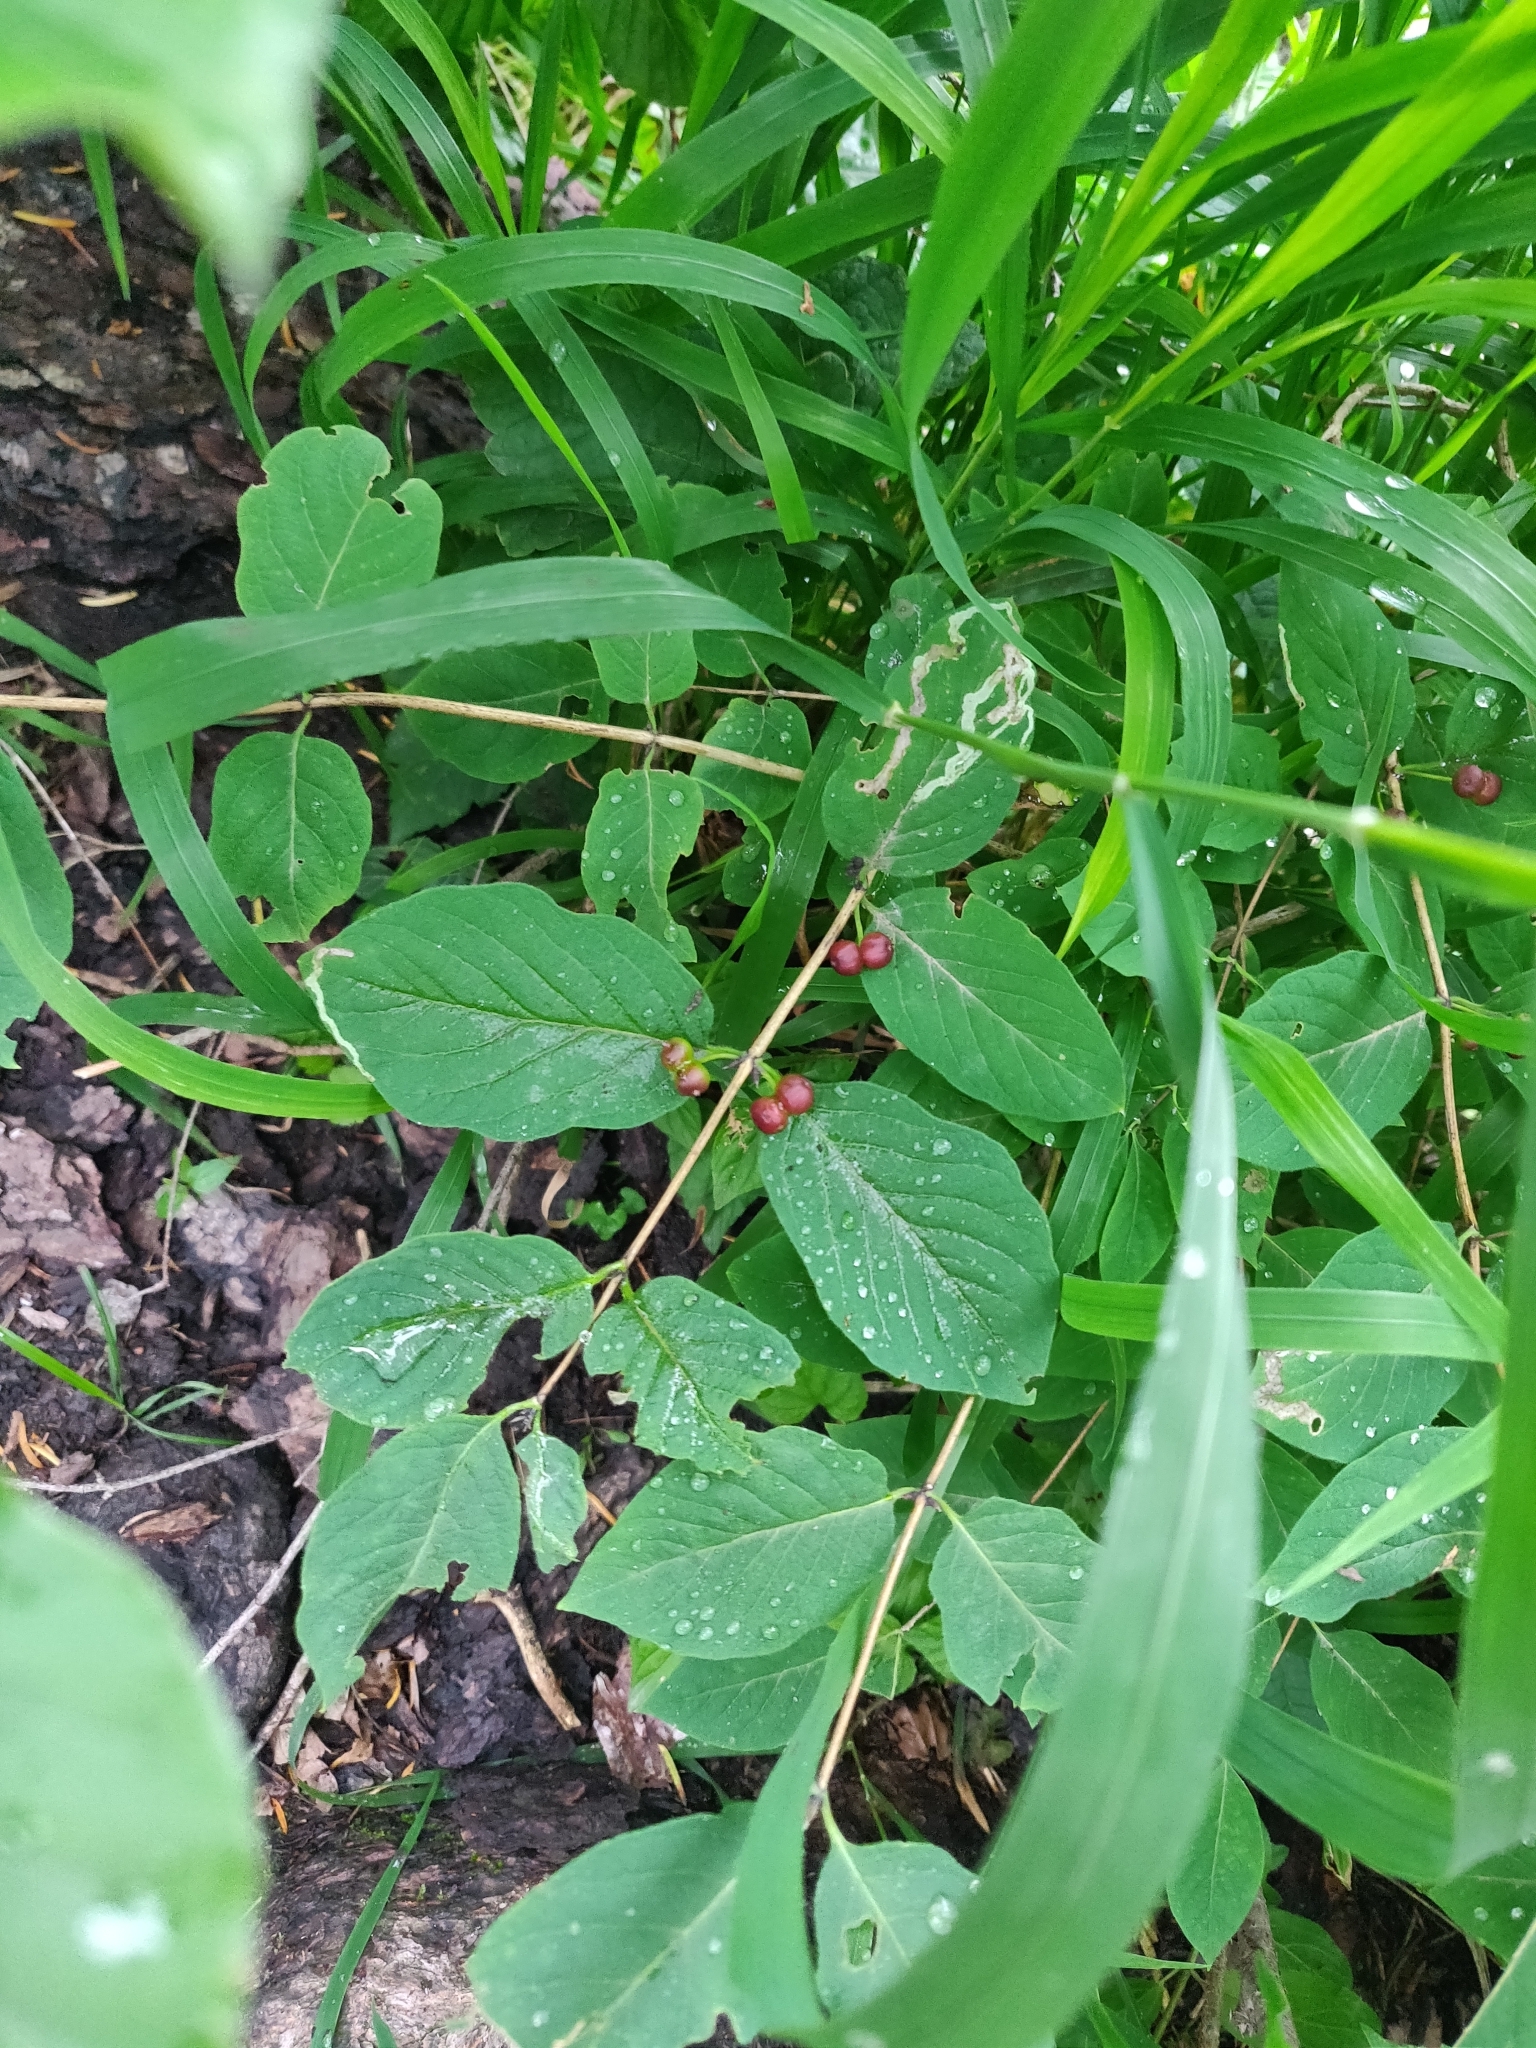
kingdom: Plantae
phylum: Tracheophyta
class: Magnoliopsida
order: Dipsacales
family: Caprifoliaceae
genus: Lonicera
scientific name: Lonicera xylosteum
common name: Fly honeysuckle
